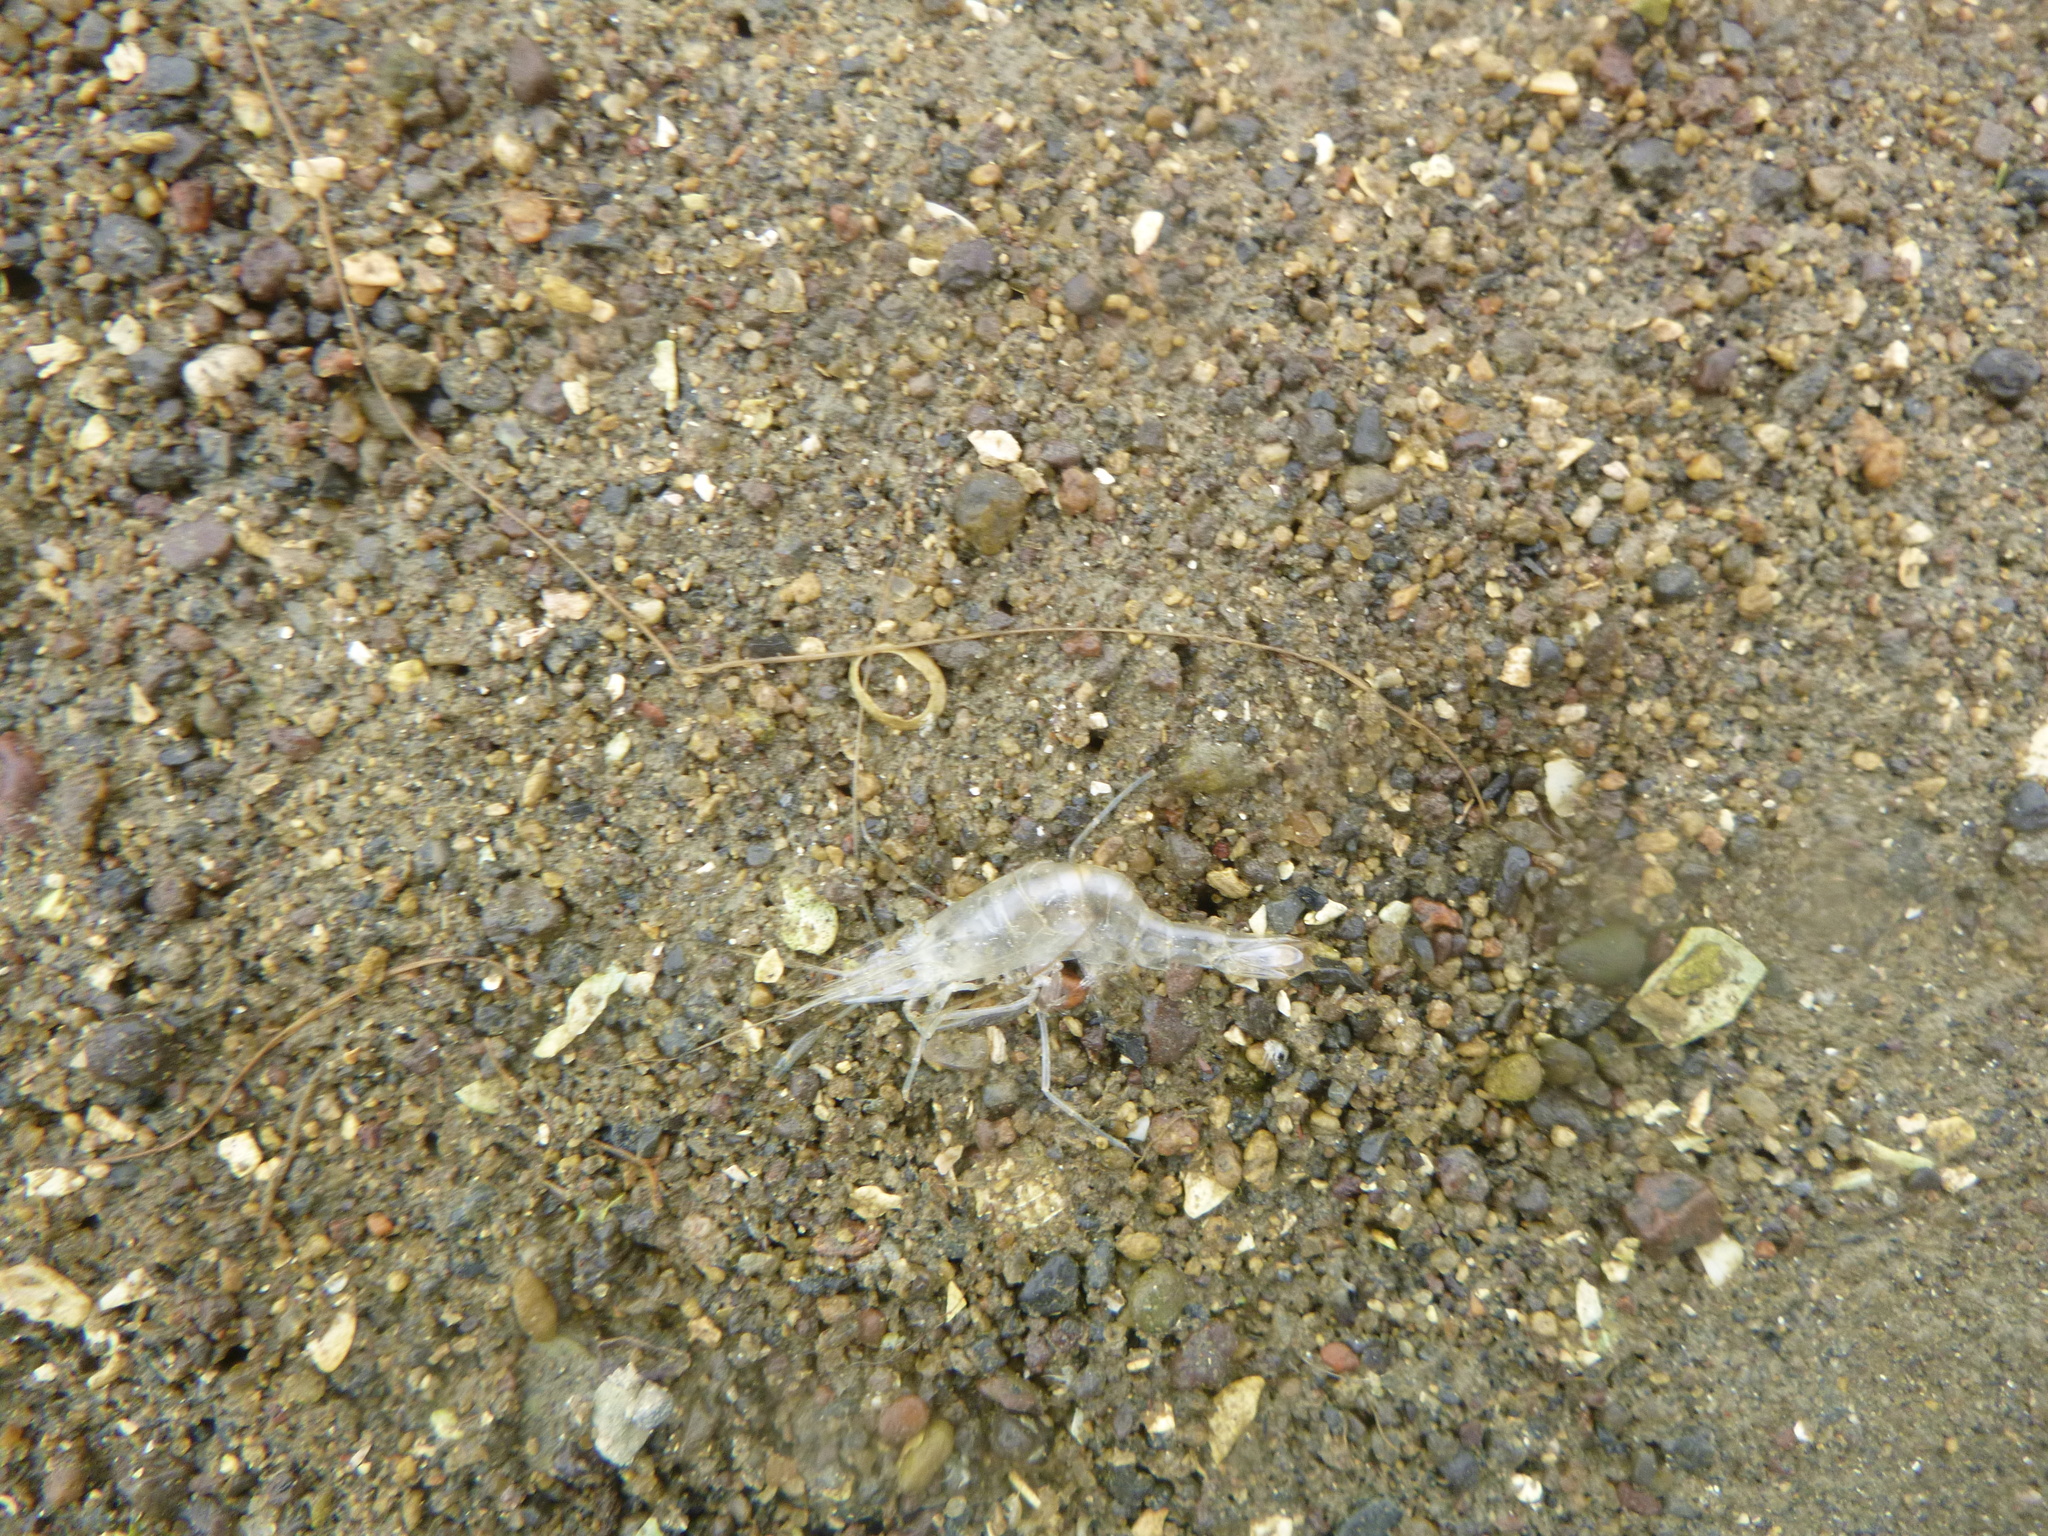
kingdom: Animalia
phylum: Arthropoda
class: Malacostraca
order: Decapoda
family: Palaemonidae
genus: Palaemon
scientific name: Palaemon affinis
